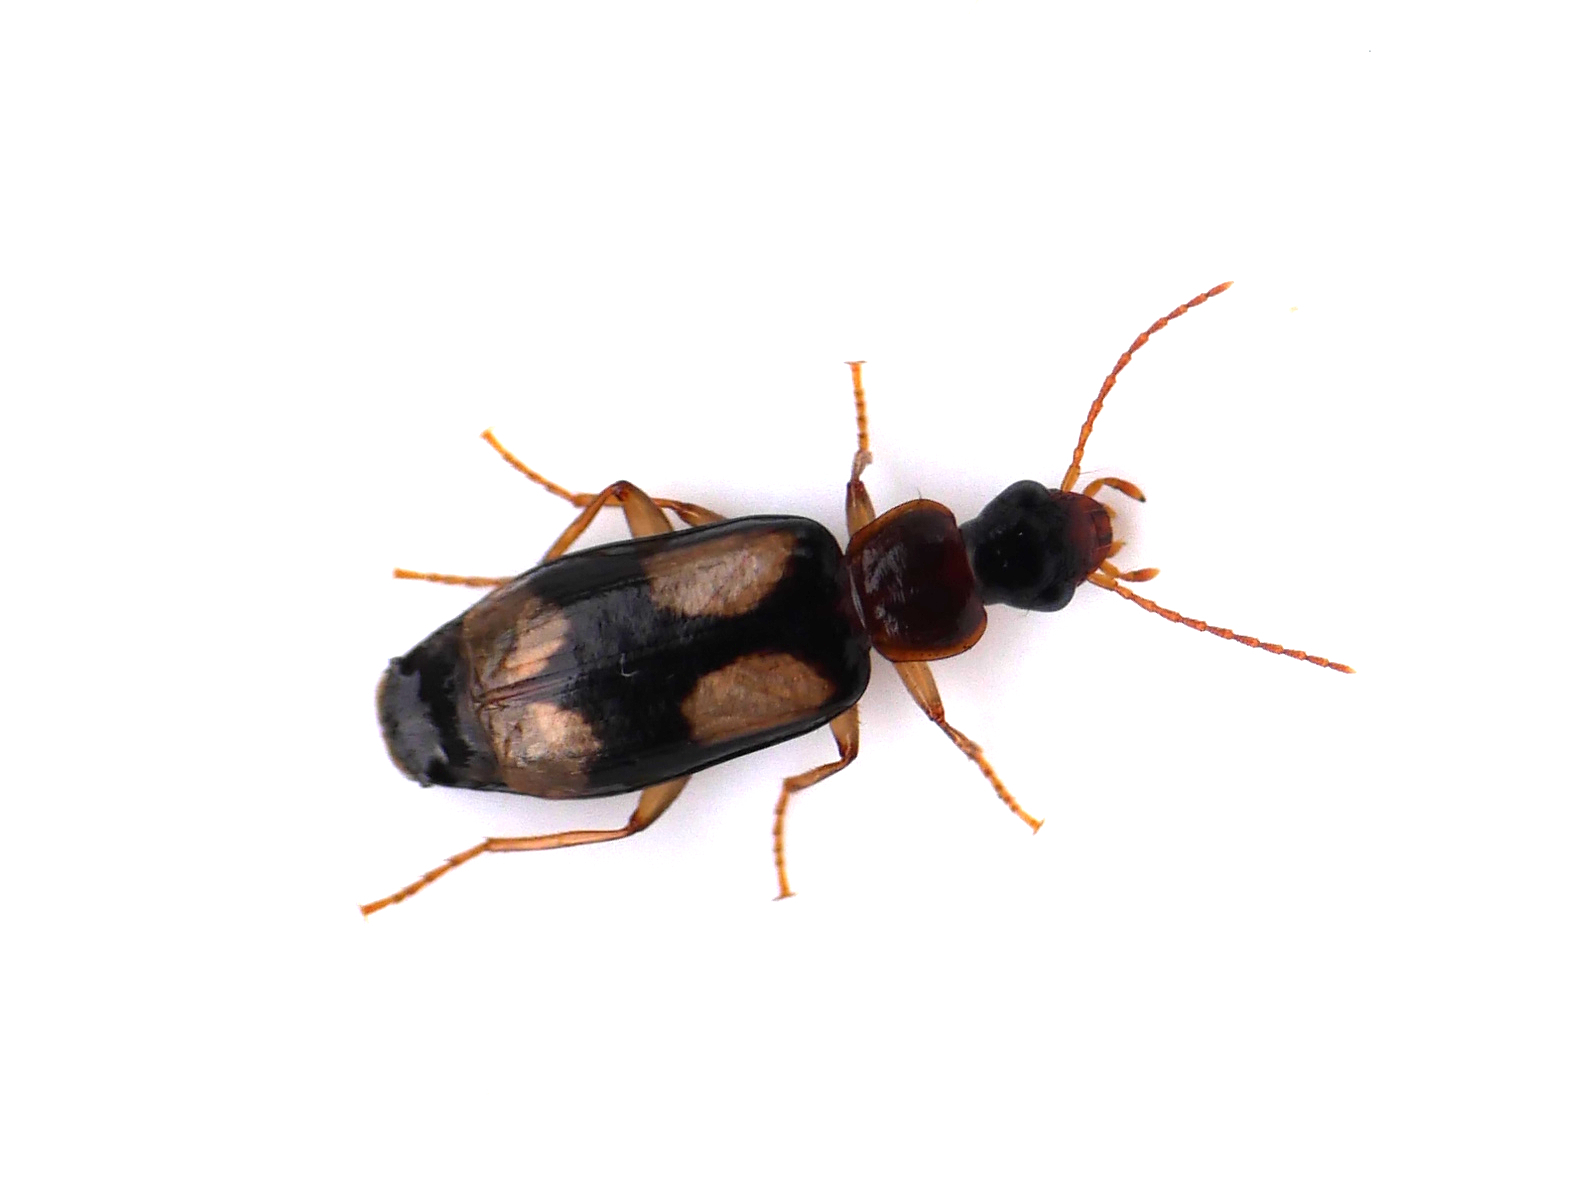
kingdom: Animalia
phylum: Arthropoda
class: Insecta
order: Coleoptera
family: Carabidae
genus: Dromius
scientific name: Dromius quadrimaculatus
